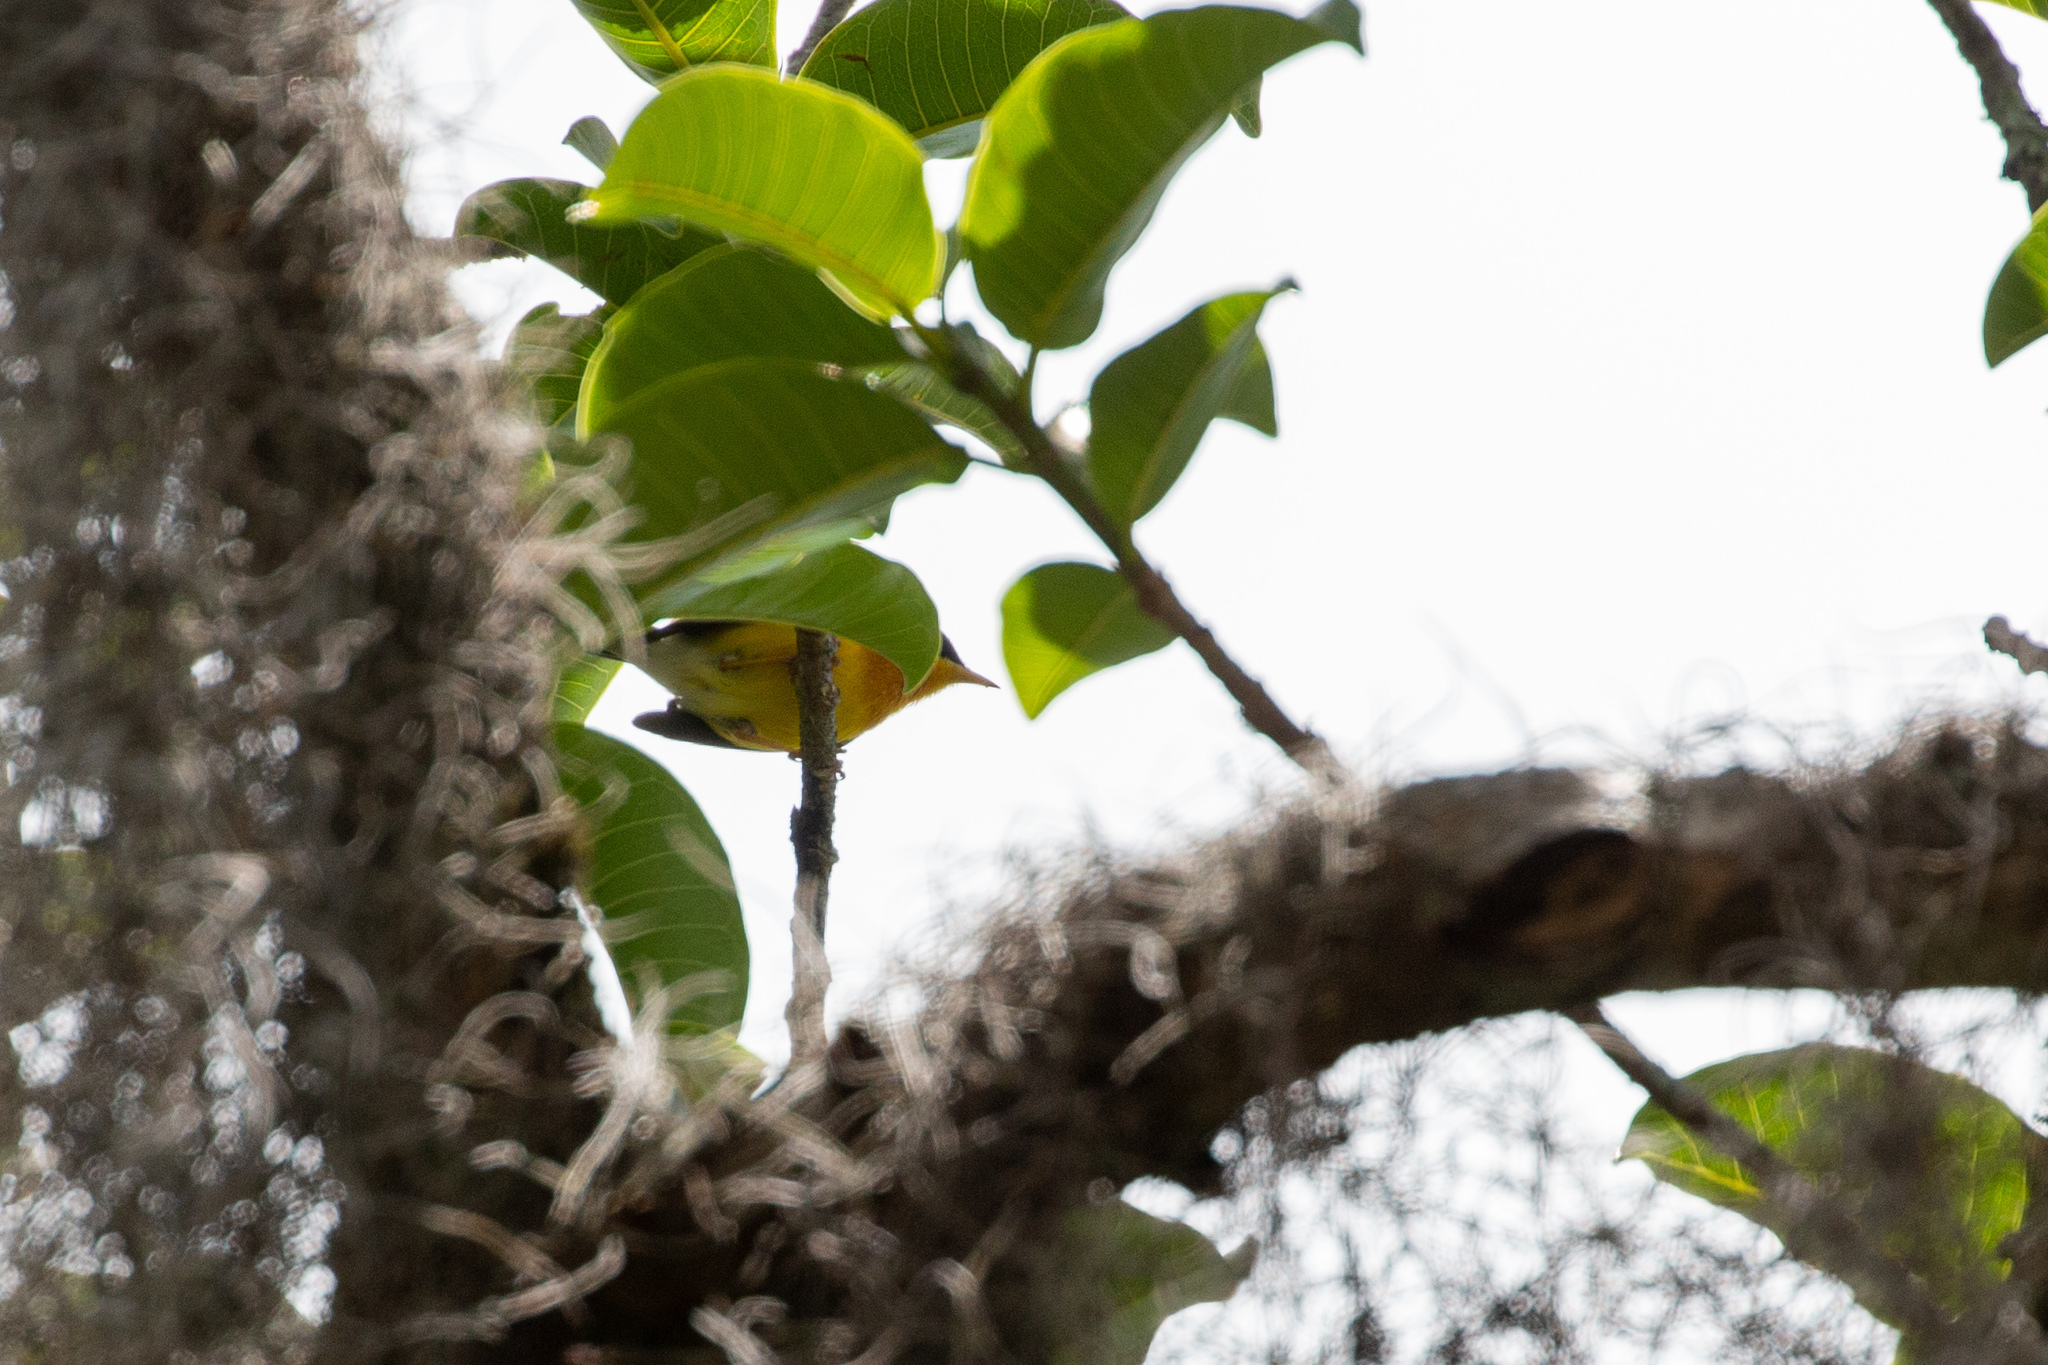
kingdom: Animalia
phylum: Chordata
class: Aves
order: Passeriformes
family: Parulidae
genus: Setophaga
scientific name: Setophaga pitiayumi
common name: Tropical parula
